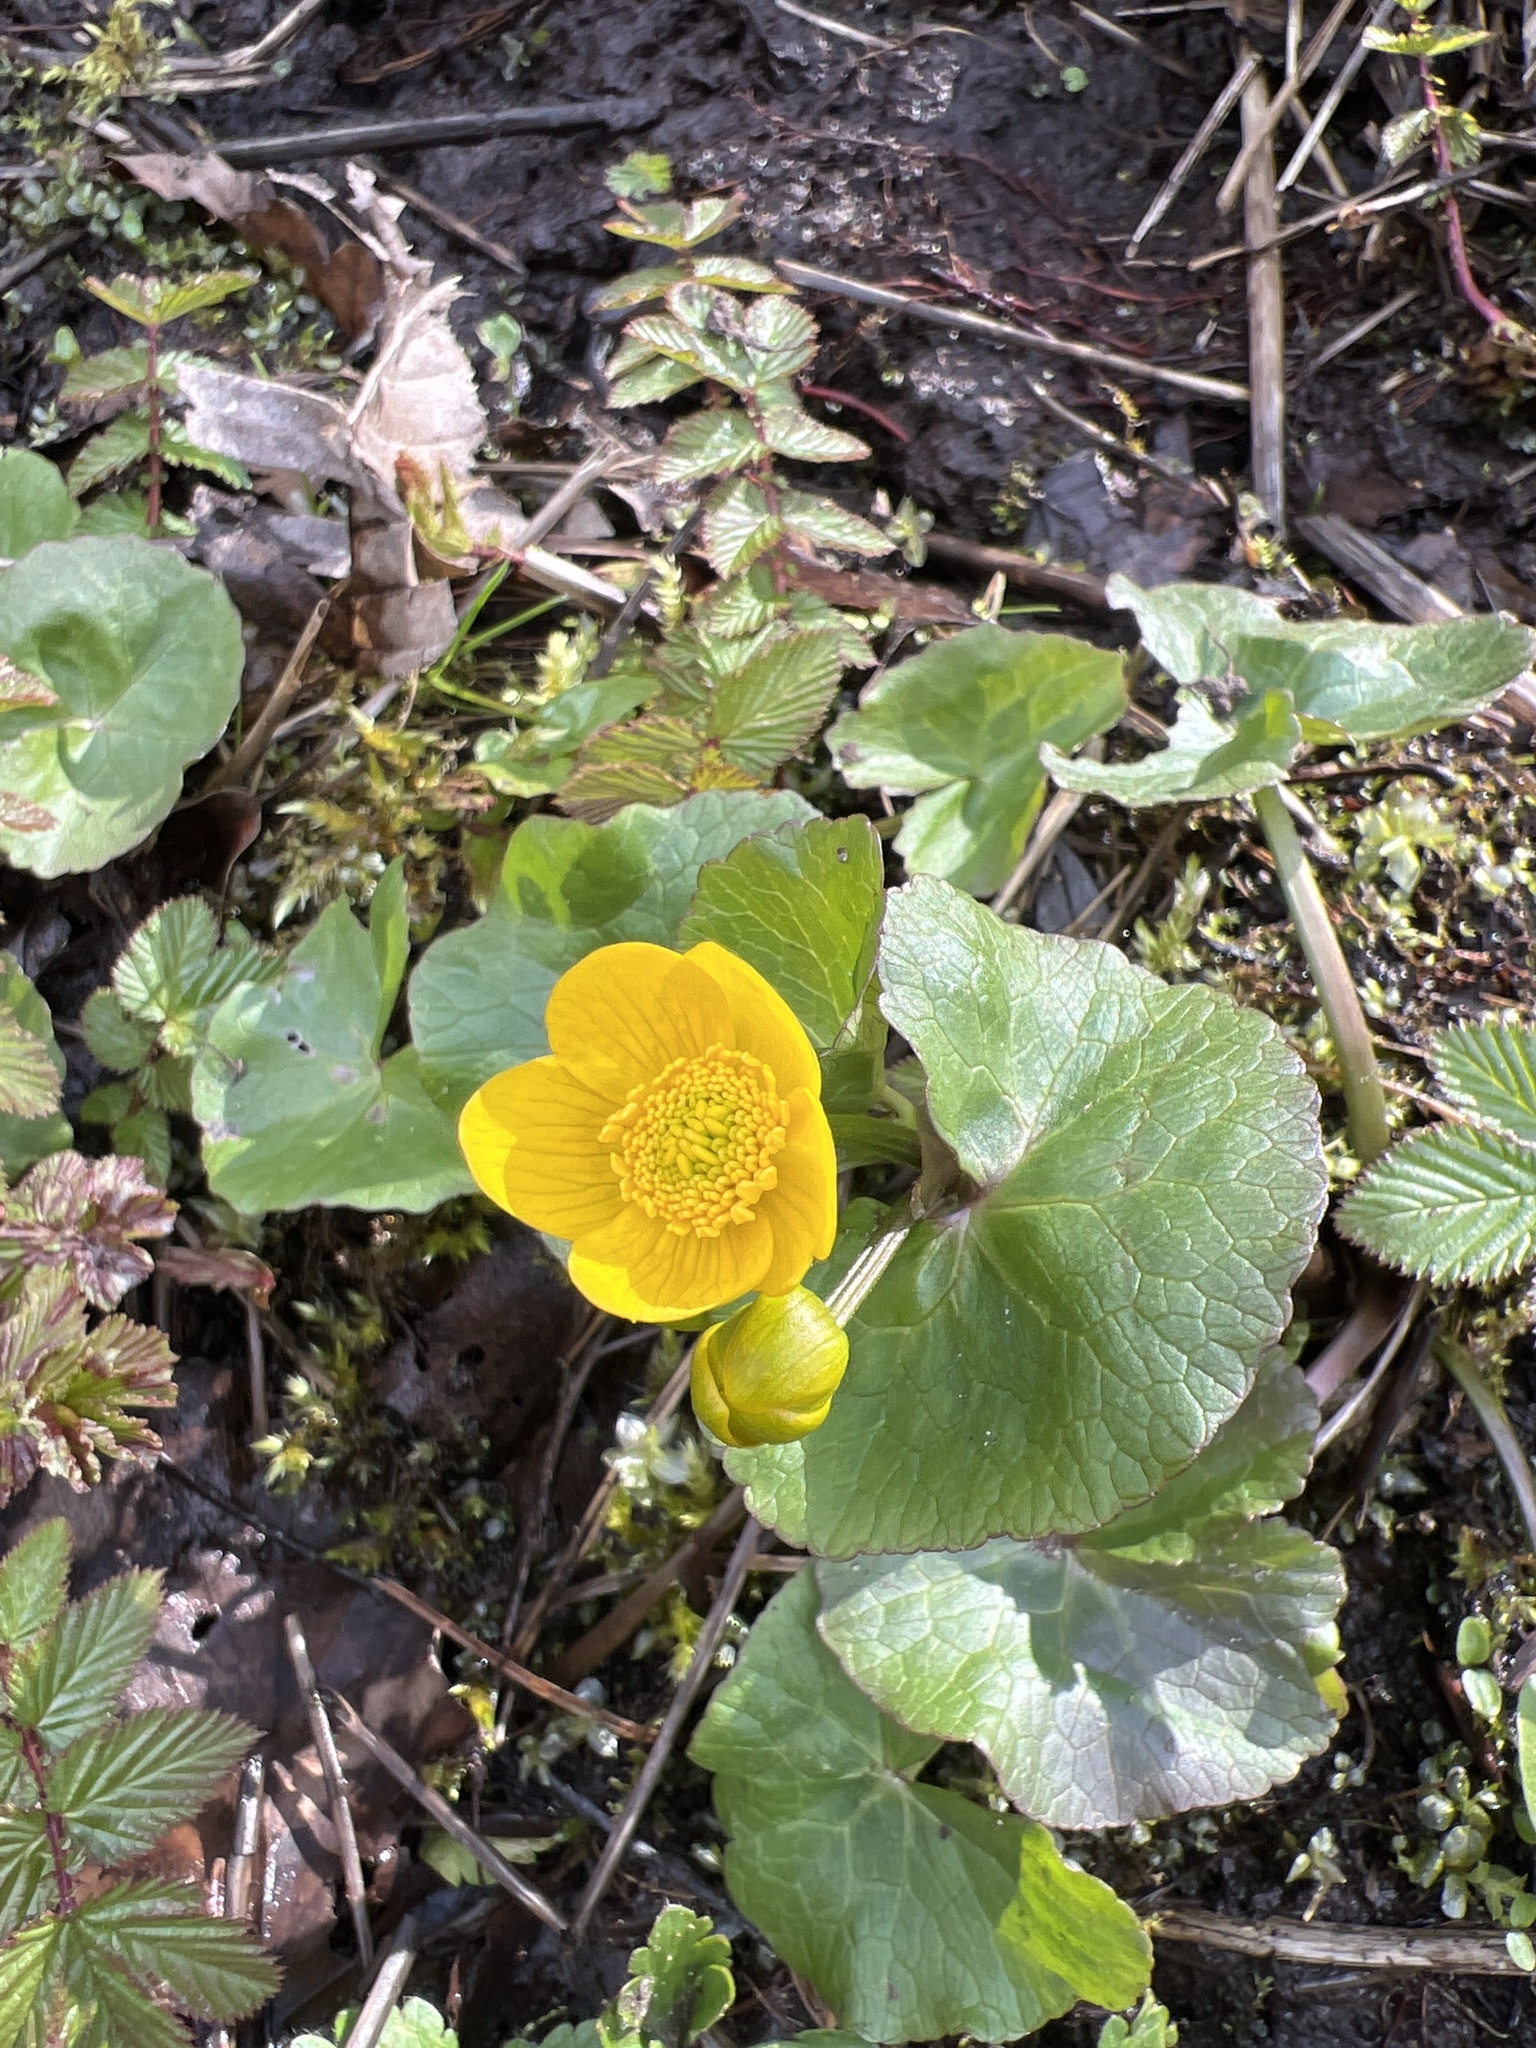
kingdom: Plantae
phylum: Tracheophyta
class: Magnoliopsida
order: Ranunculales
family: Ranunculaceae
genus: Caltha
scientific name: Caltha palustris
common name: Marsh marigold
